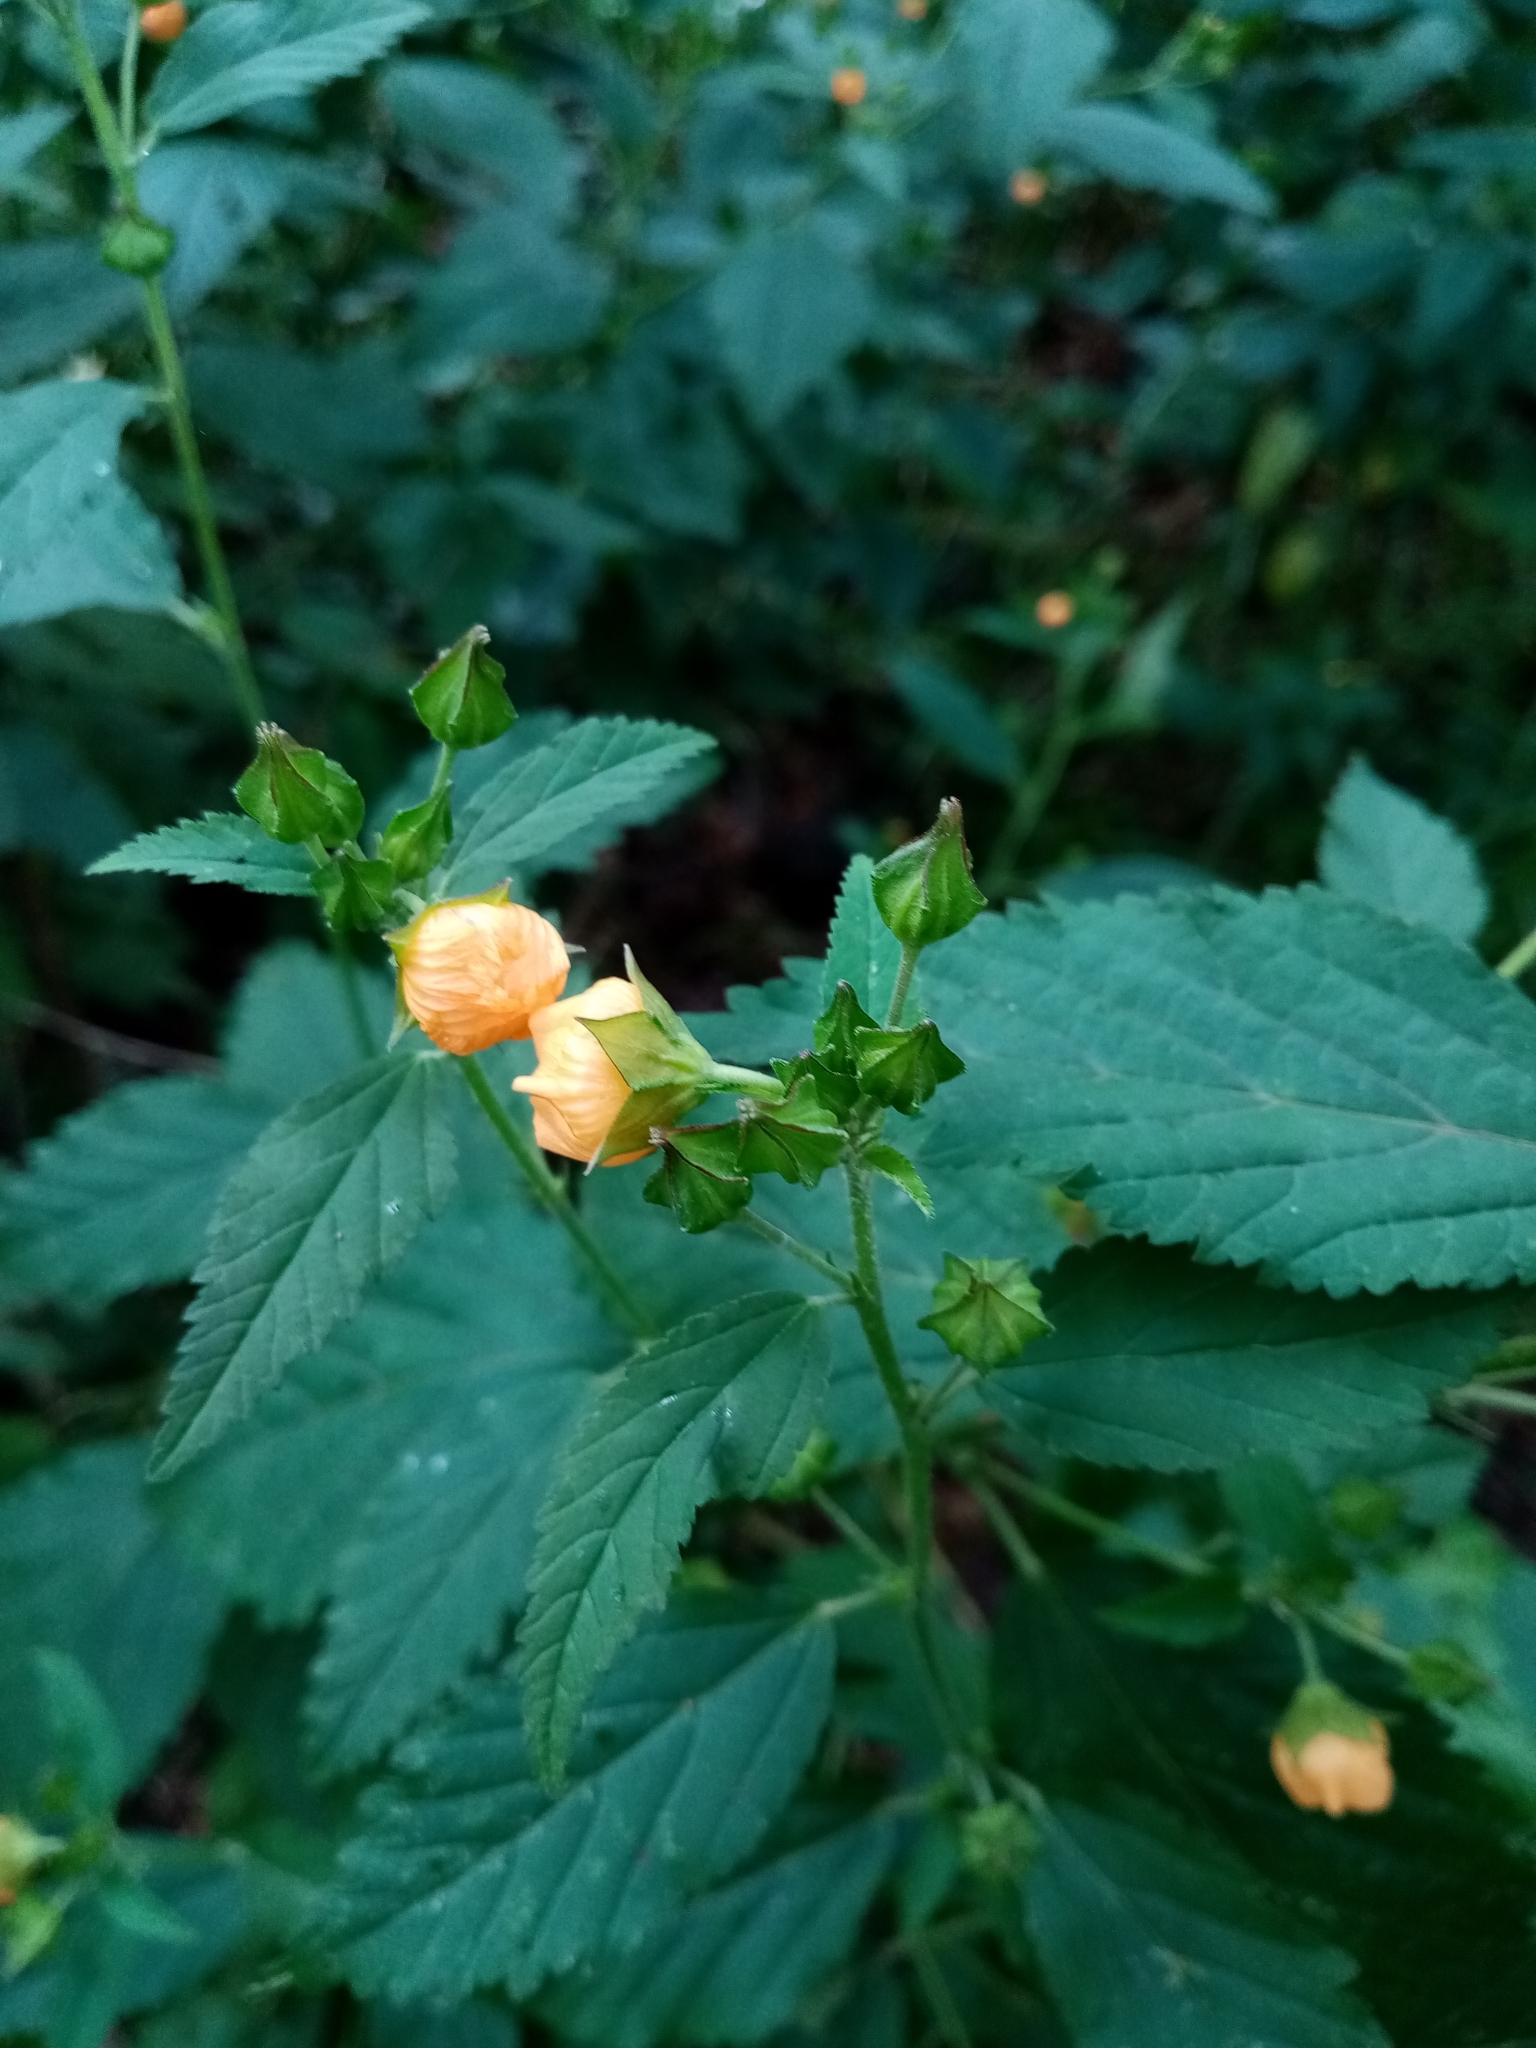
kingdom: Plantae
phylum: Tracheophyta
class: Magnoliopsida
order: Malvales
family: Malvaceae
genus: Sida
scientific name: Sida acuta
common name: Common wireweed
